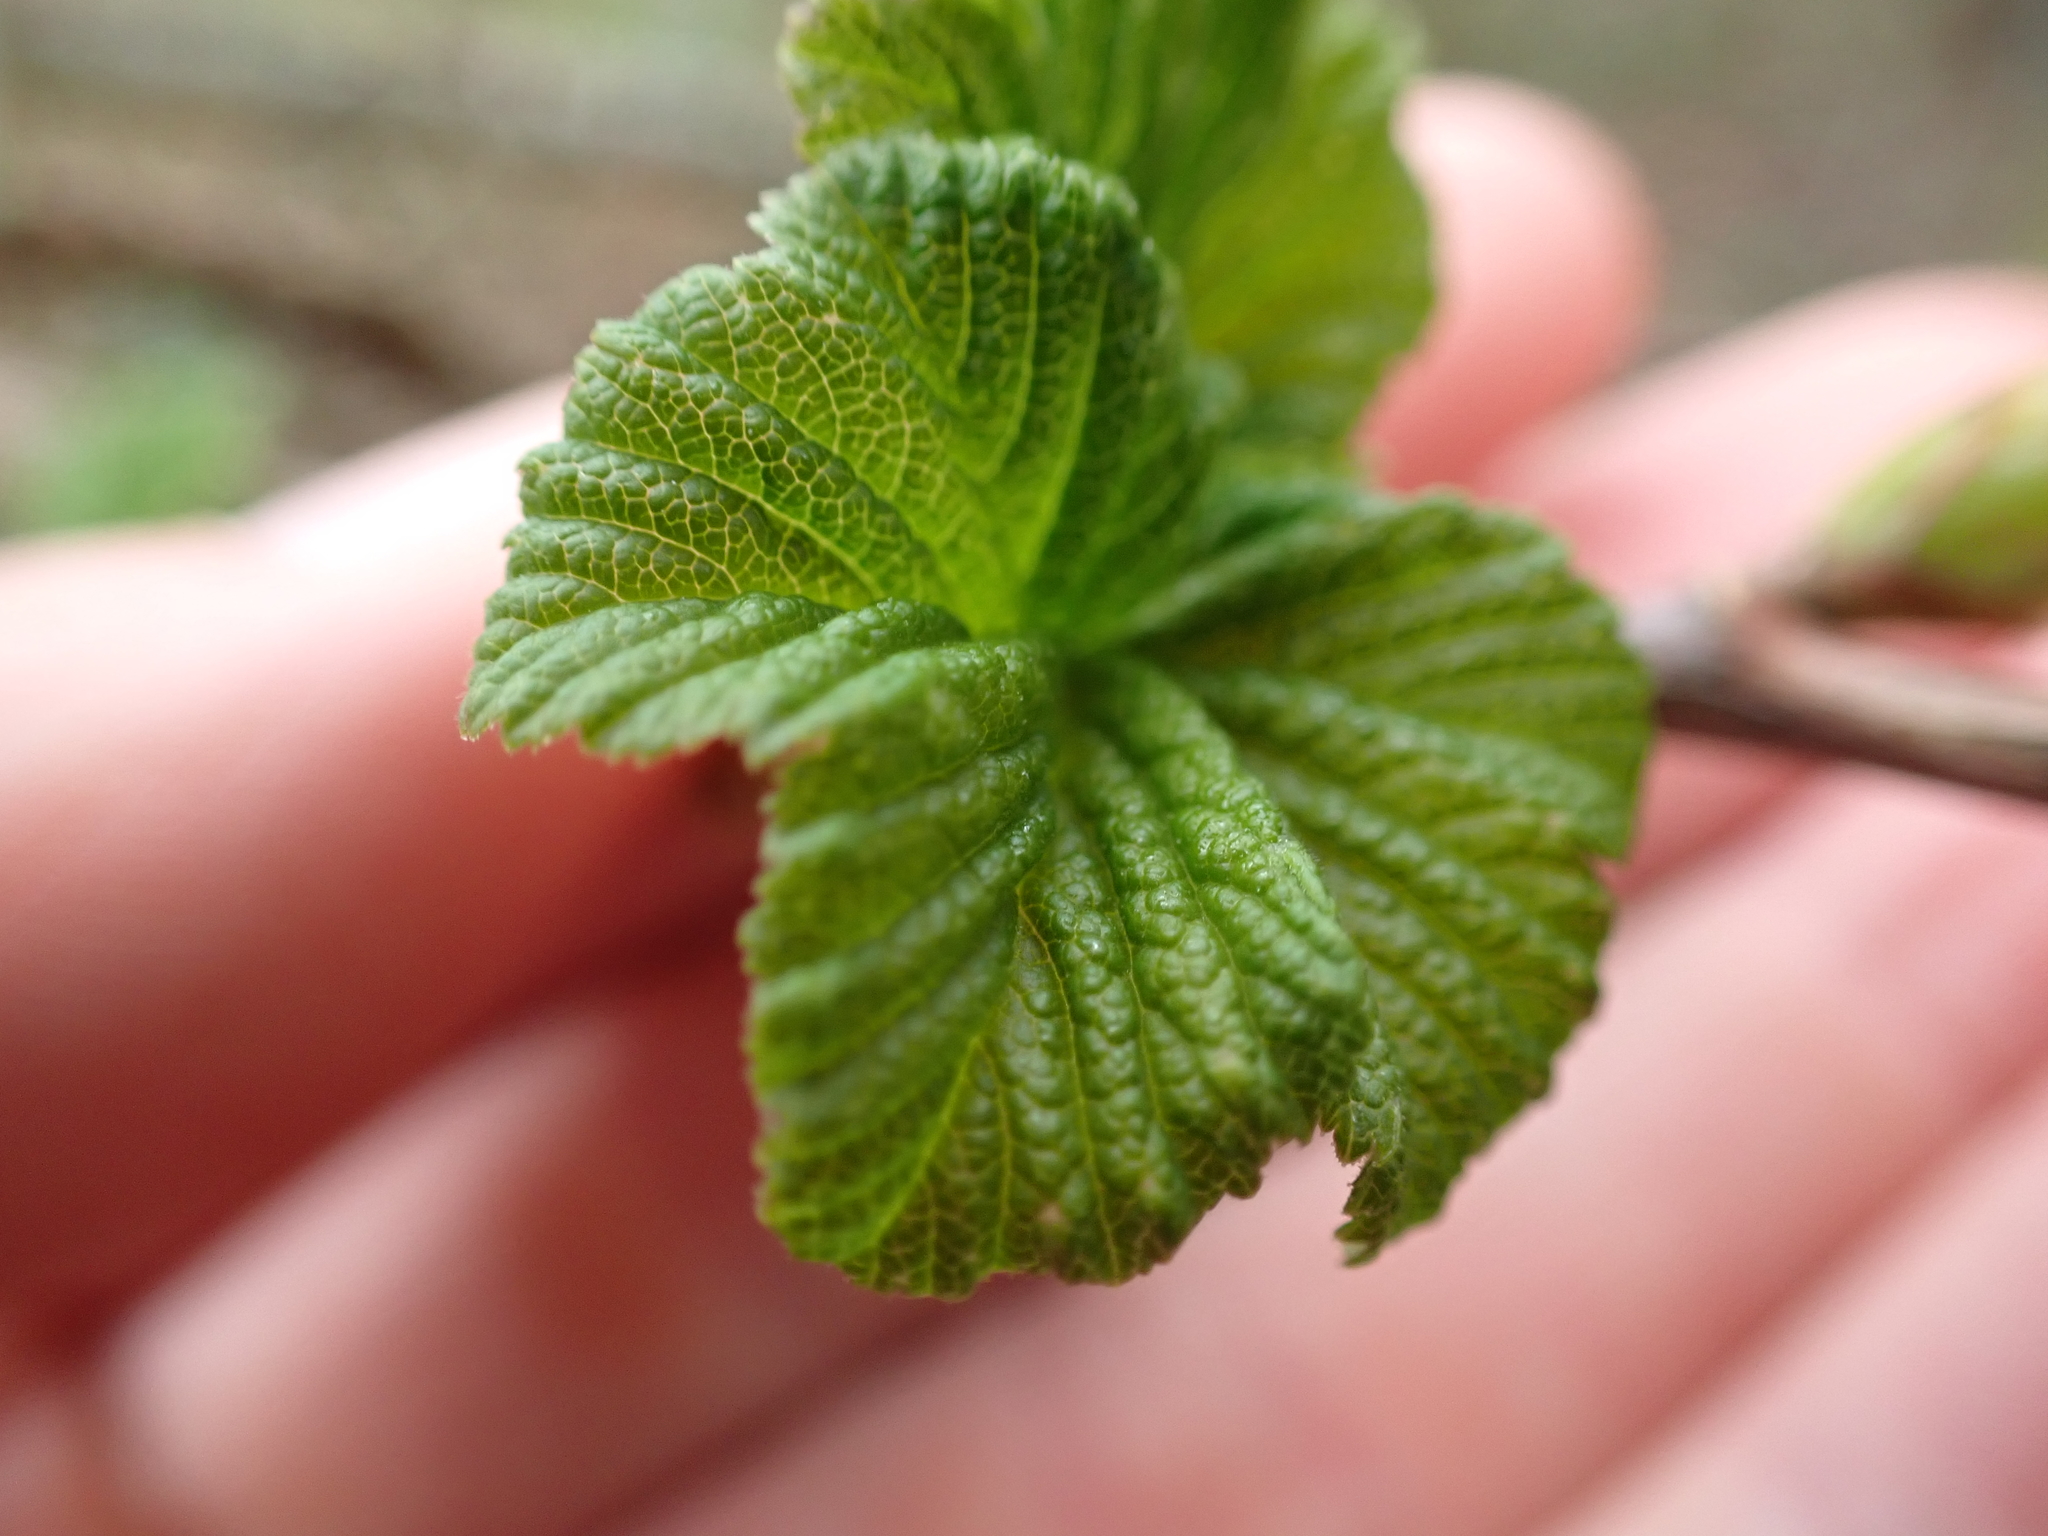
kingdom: Plantae
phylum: Tracheophyta
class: Magnoliopsida
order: Saxifragales
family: Grossulariaceae
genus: Ribes
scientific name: Ribes sanguineum
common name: Flowering currant
